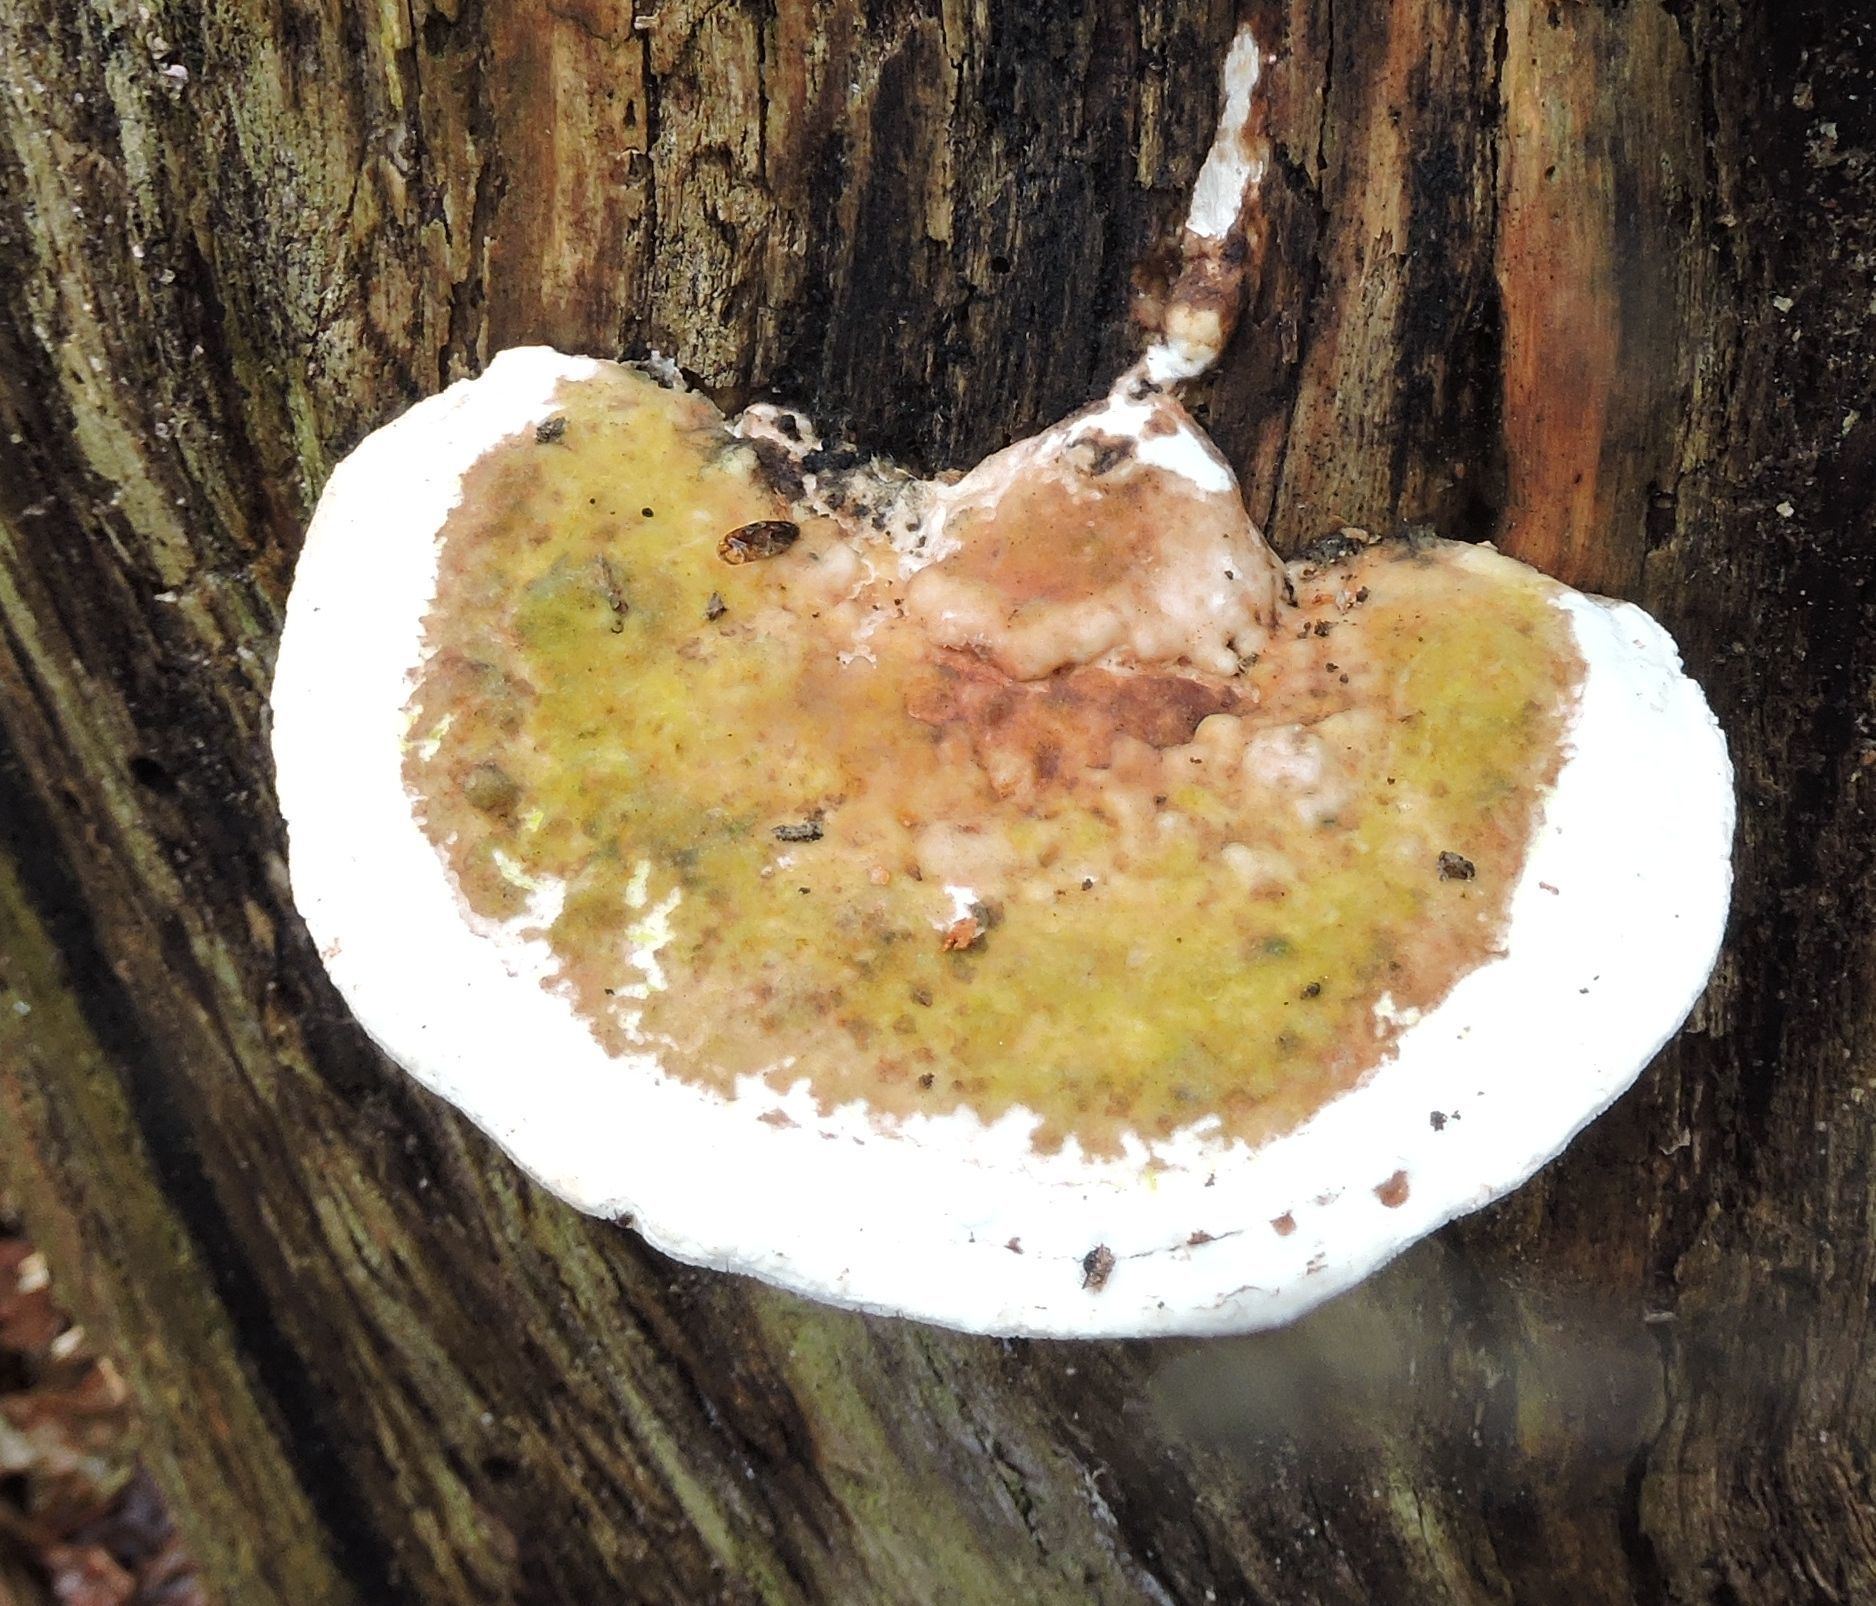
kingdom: Fungi
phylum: Basidiomycota
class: Agaricomycetes
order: Polyporales
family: Polyporaceae
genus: Trametes
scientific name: Trametes gibbosa
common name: Lumpy bracket
